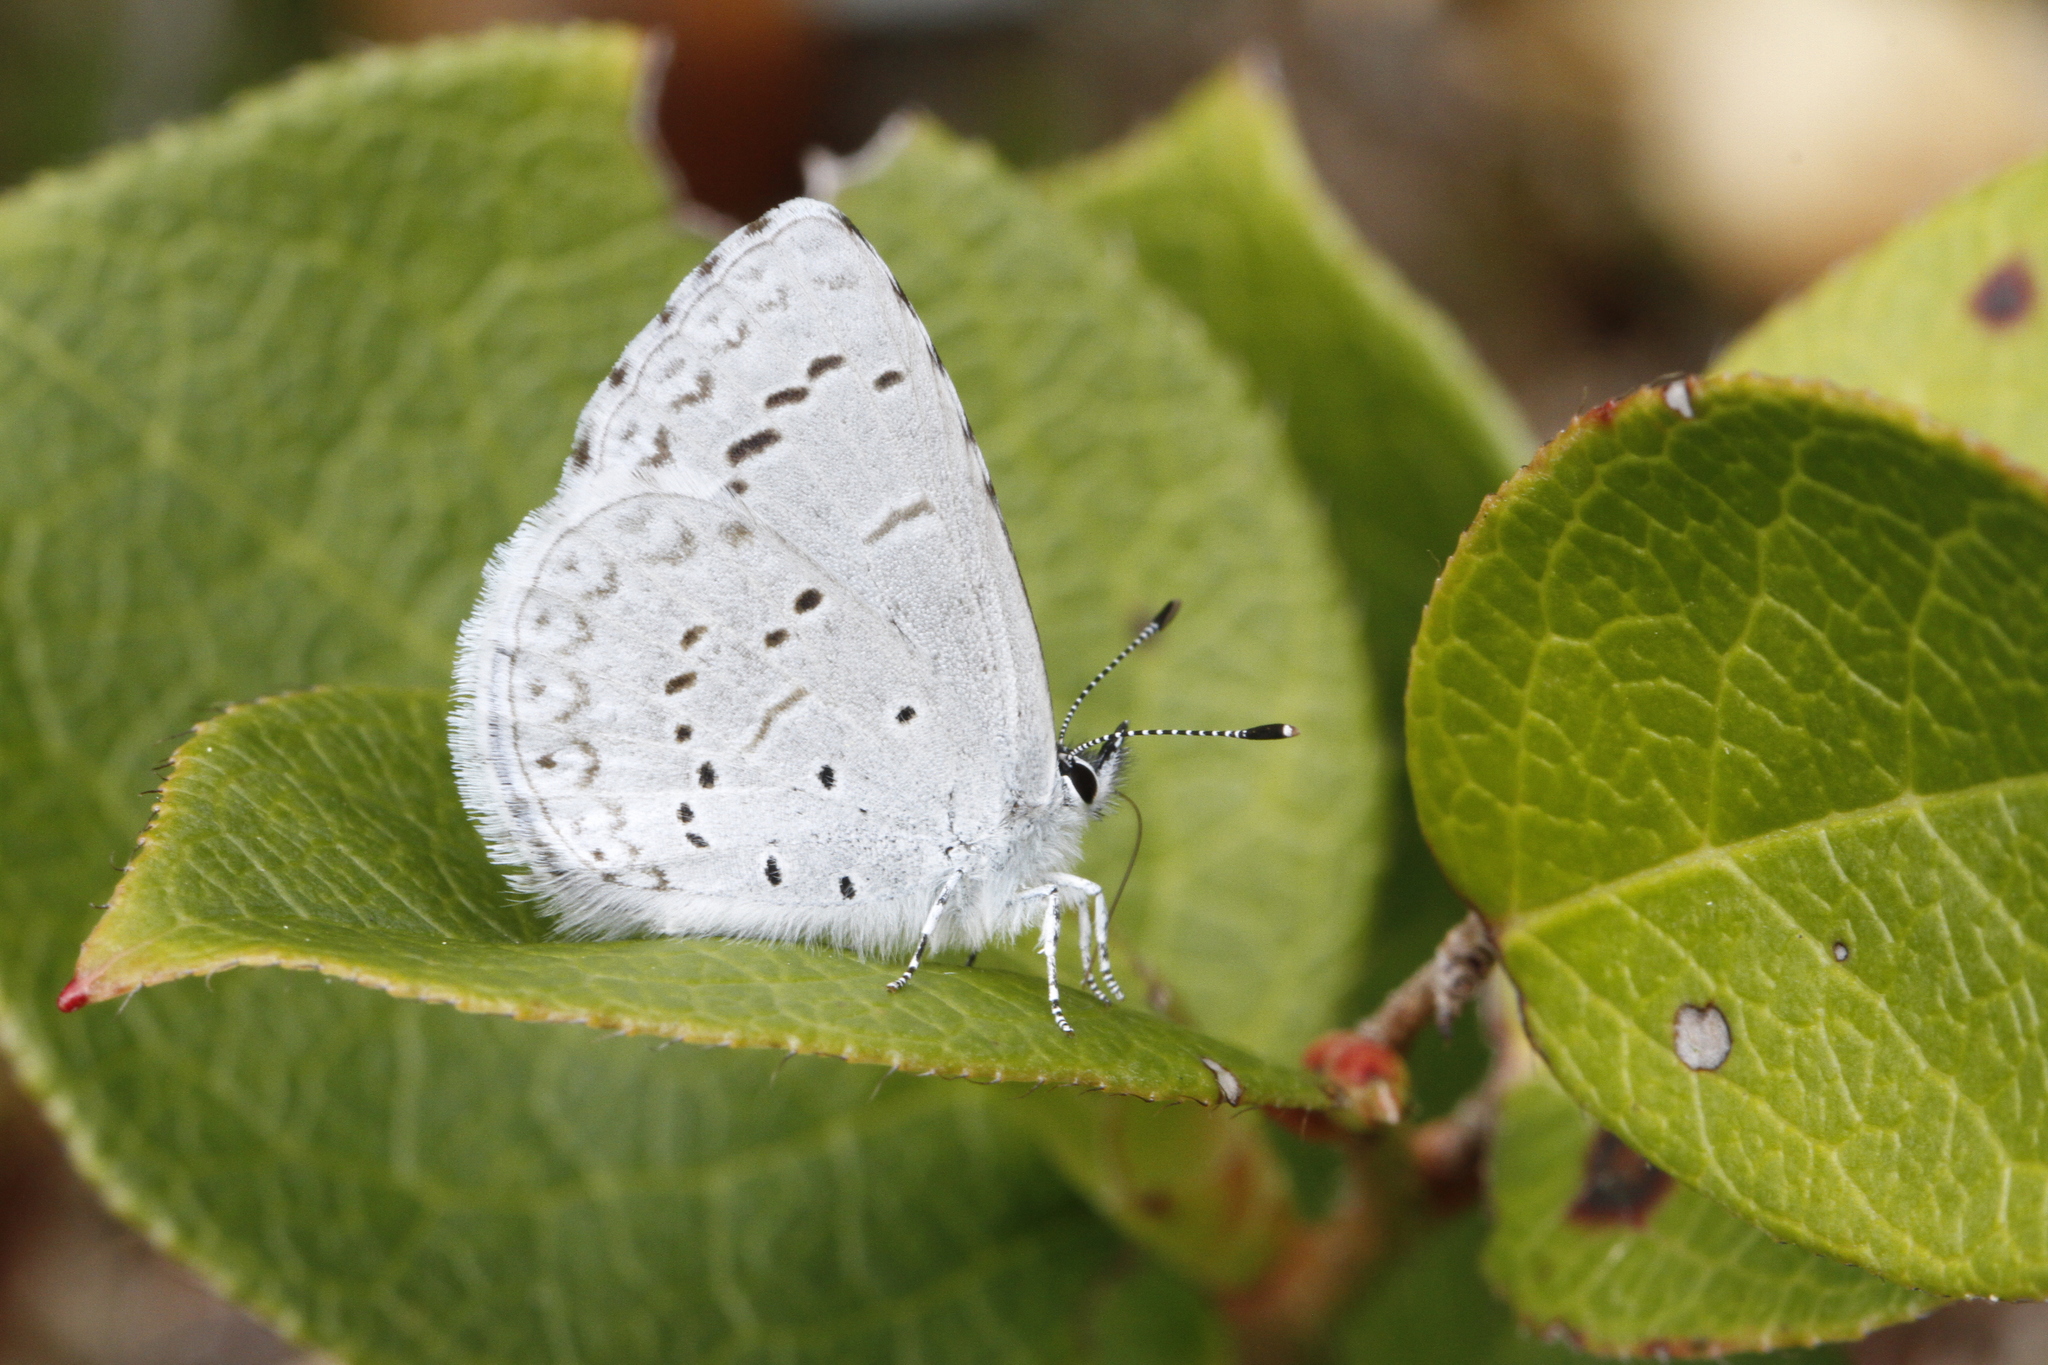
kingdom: Animalia
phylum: Arthropoda
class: Insecta
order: Lepidoptera
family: Lycaenidae
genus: Celastrina
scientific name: Celastrina ladon
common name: Spring azure
